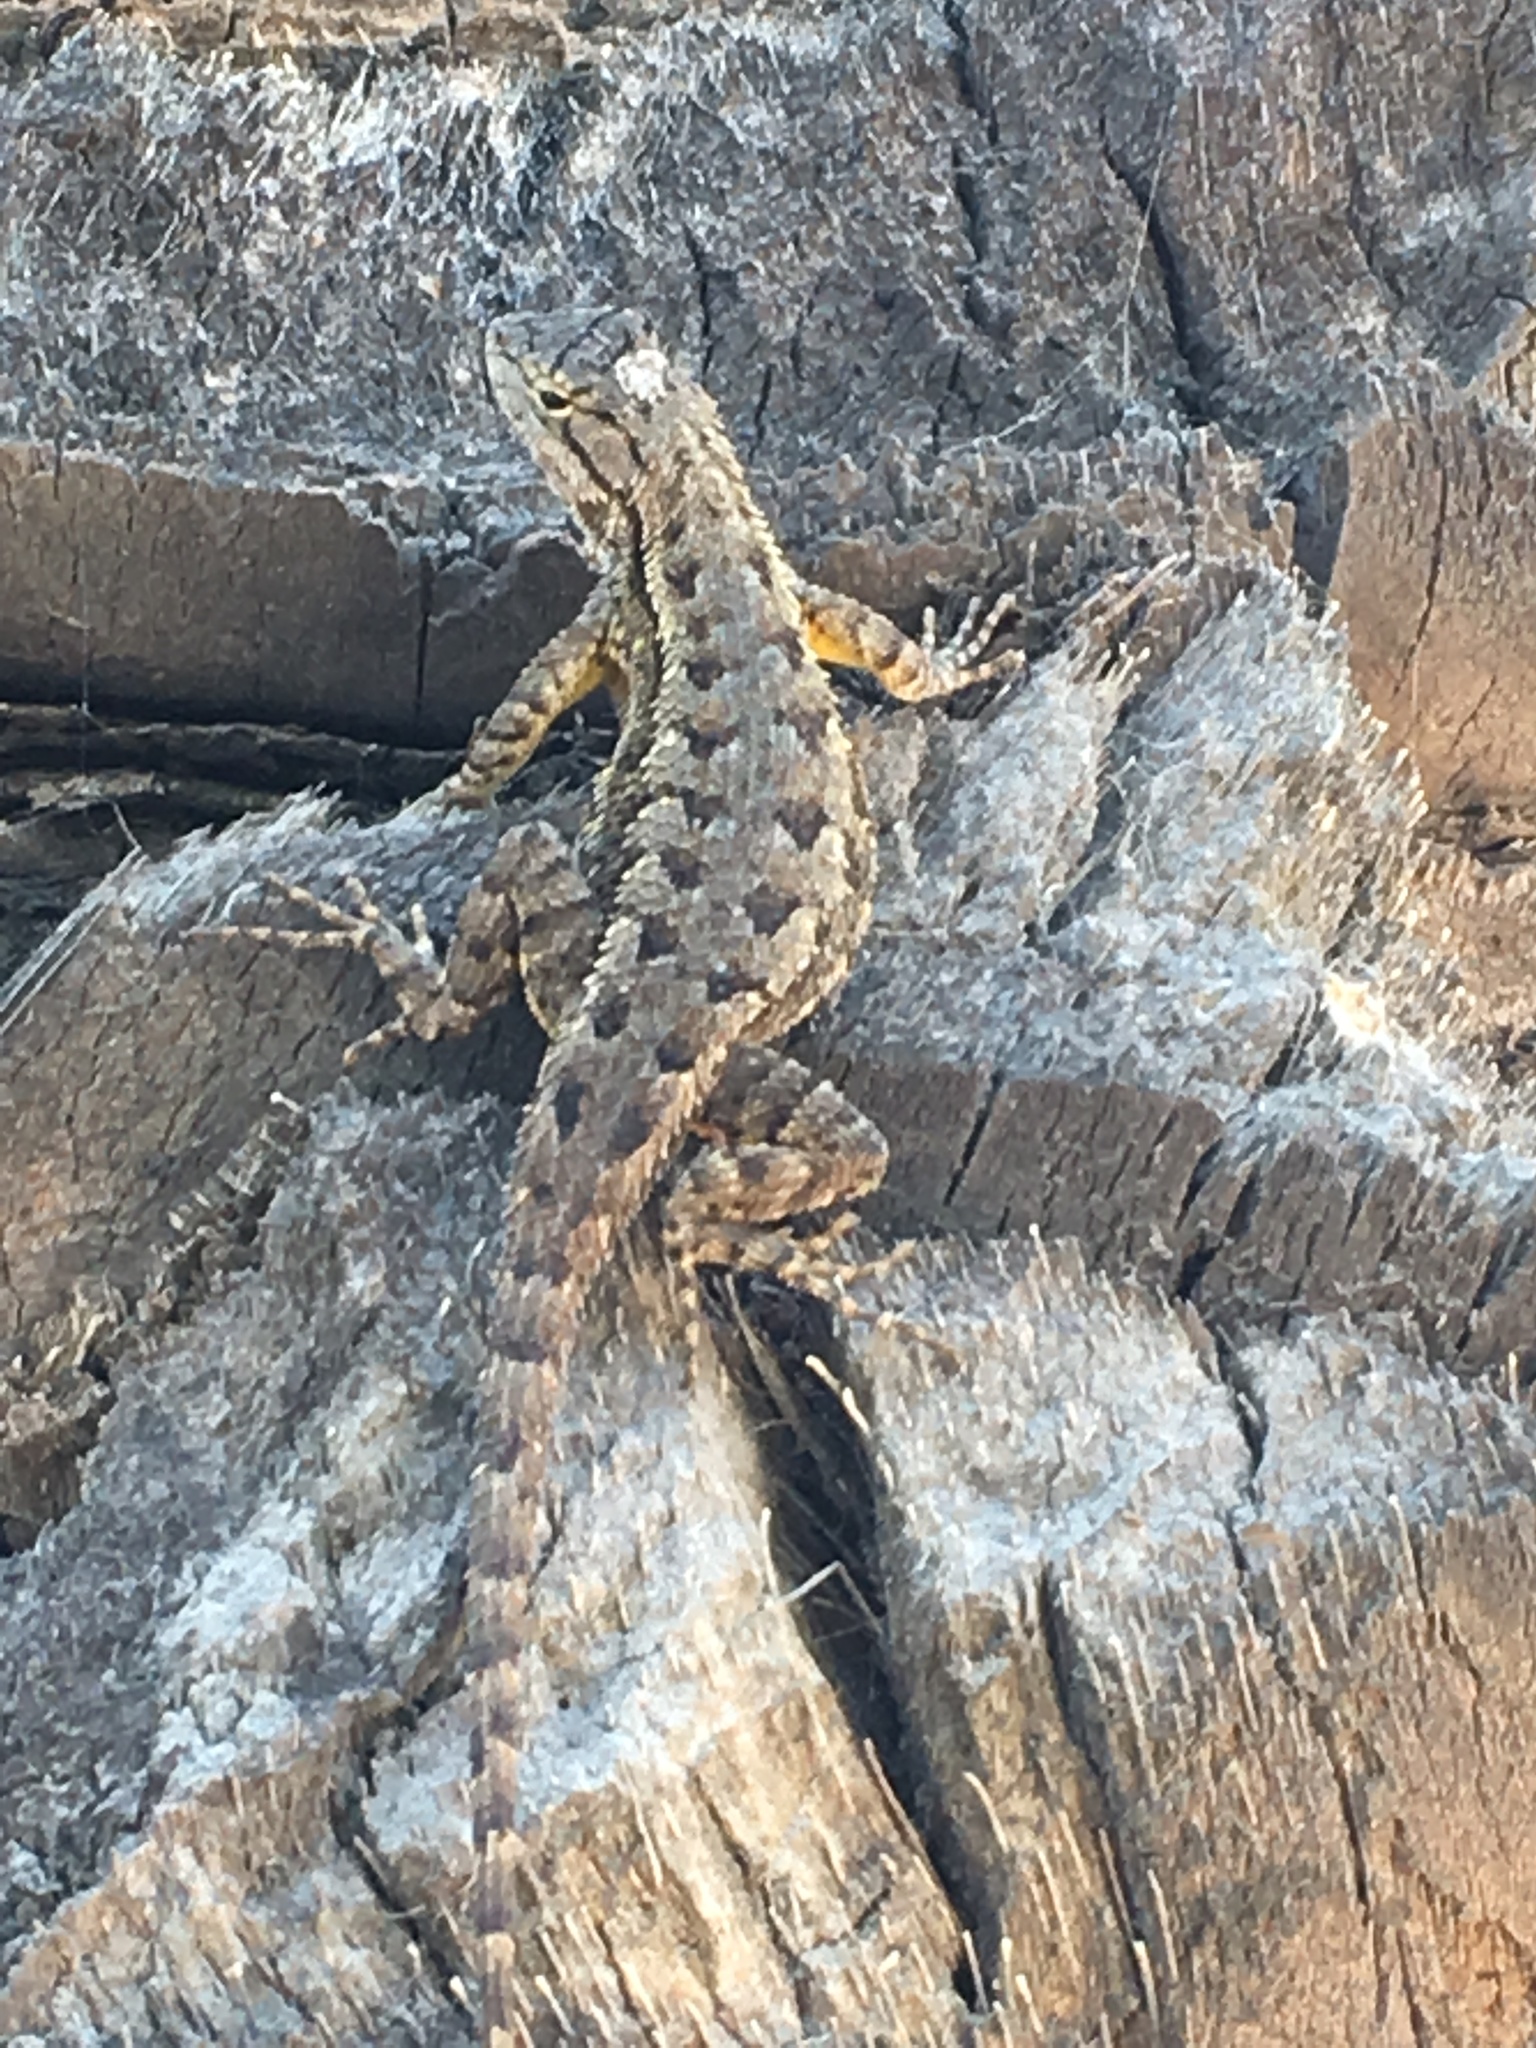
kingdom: Animalia
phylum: Chordata
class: Squamata
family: Phrynosomatidae
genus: Sceloporus
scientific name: Sceloporus occidentalis
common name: Western fence lizard
